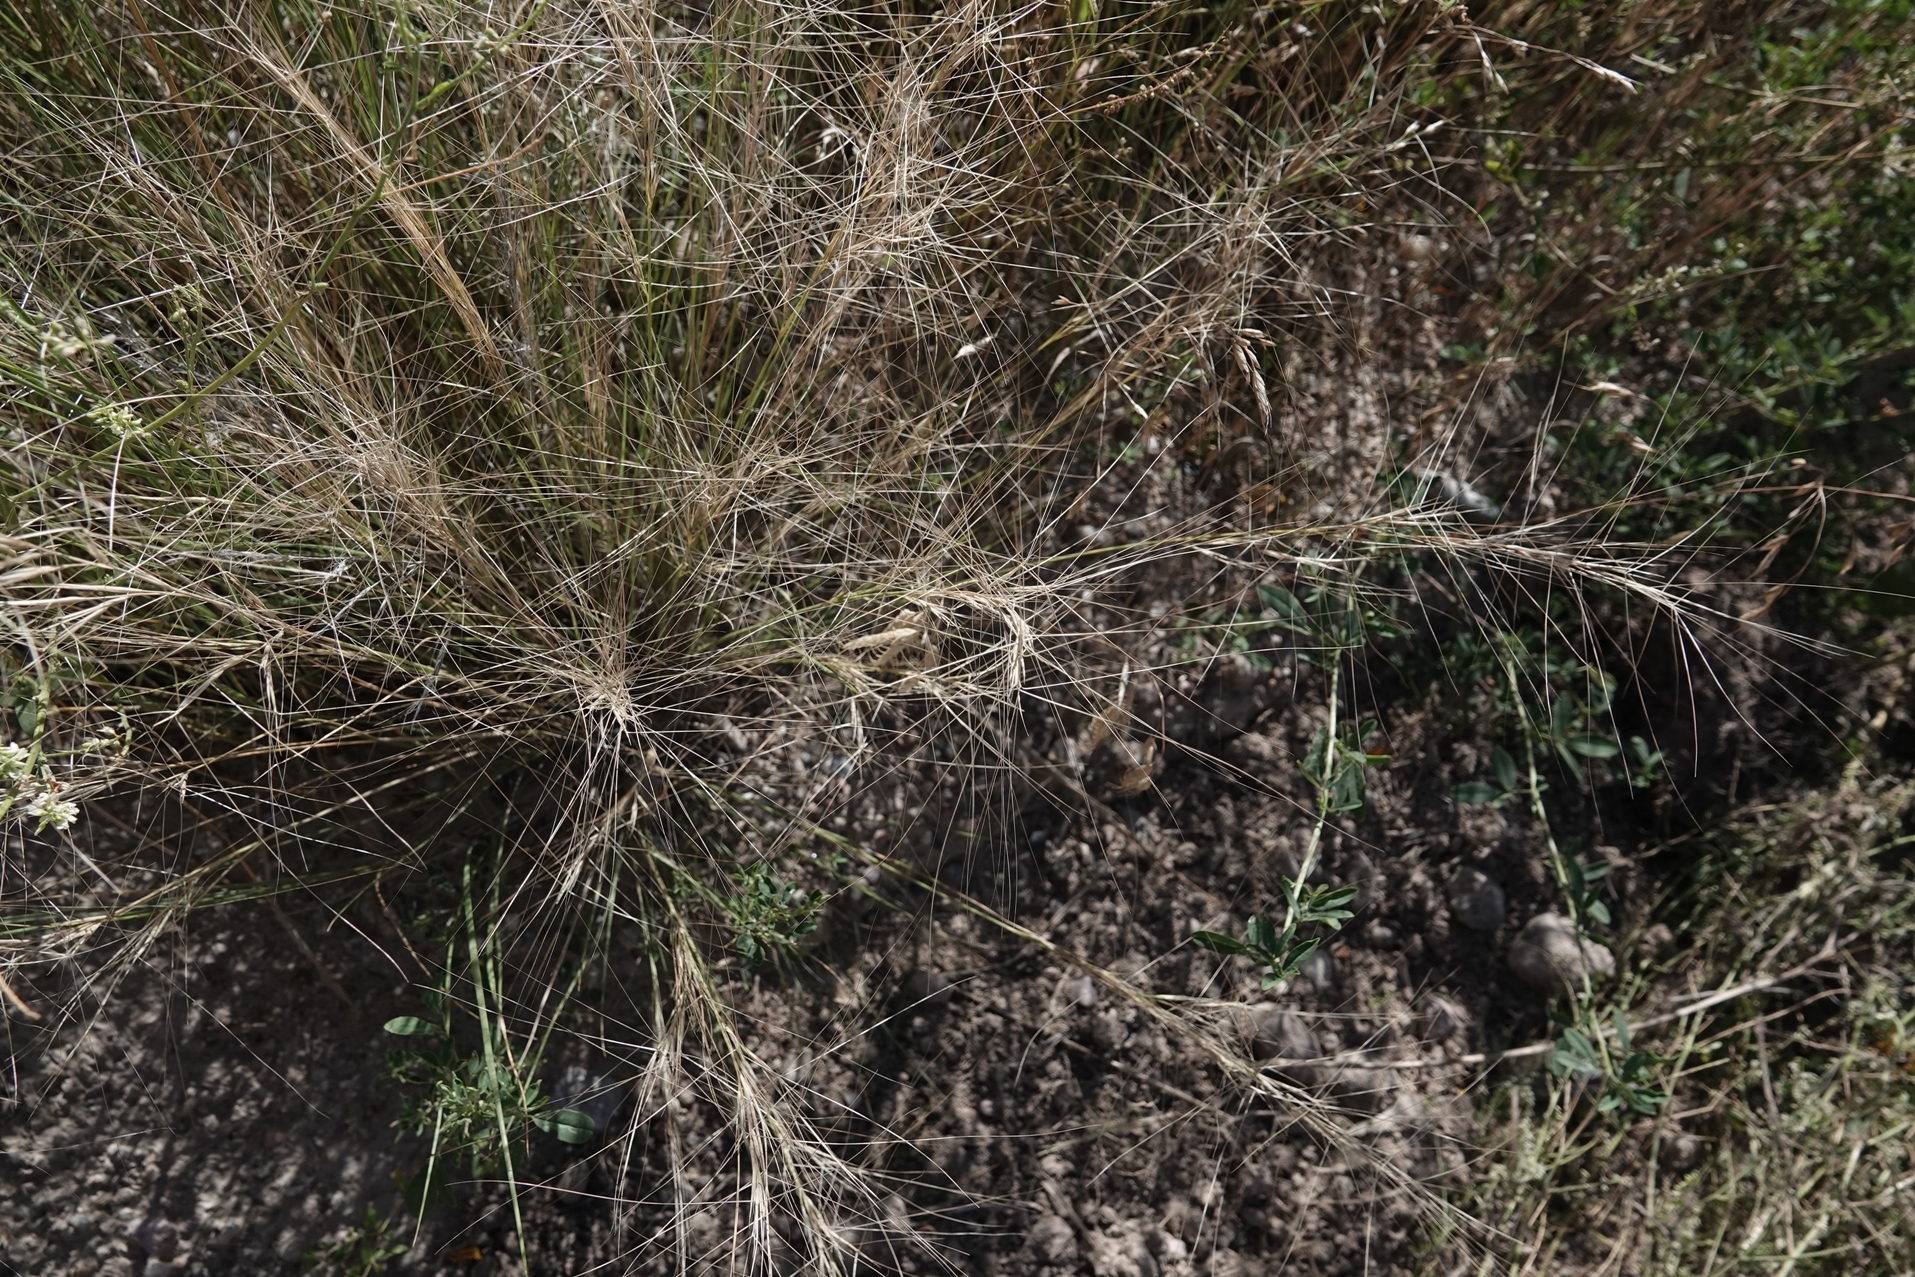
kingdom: Plantae
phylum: Tracheophyta
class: Liliopsida
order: Poales
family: Poaceae
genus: Elymus
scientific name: Elymus elymoides
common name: Bottlebrush squirreltail
